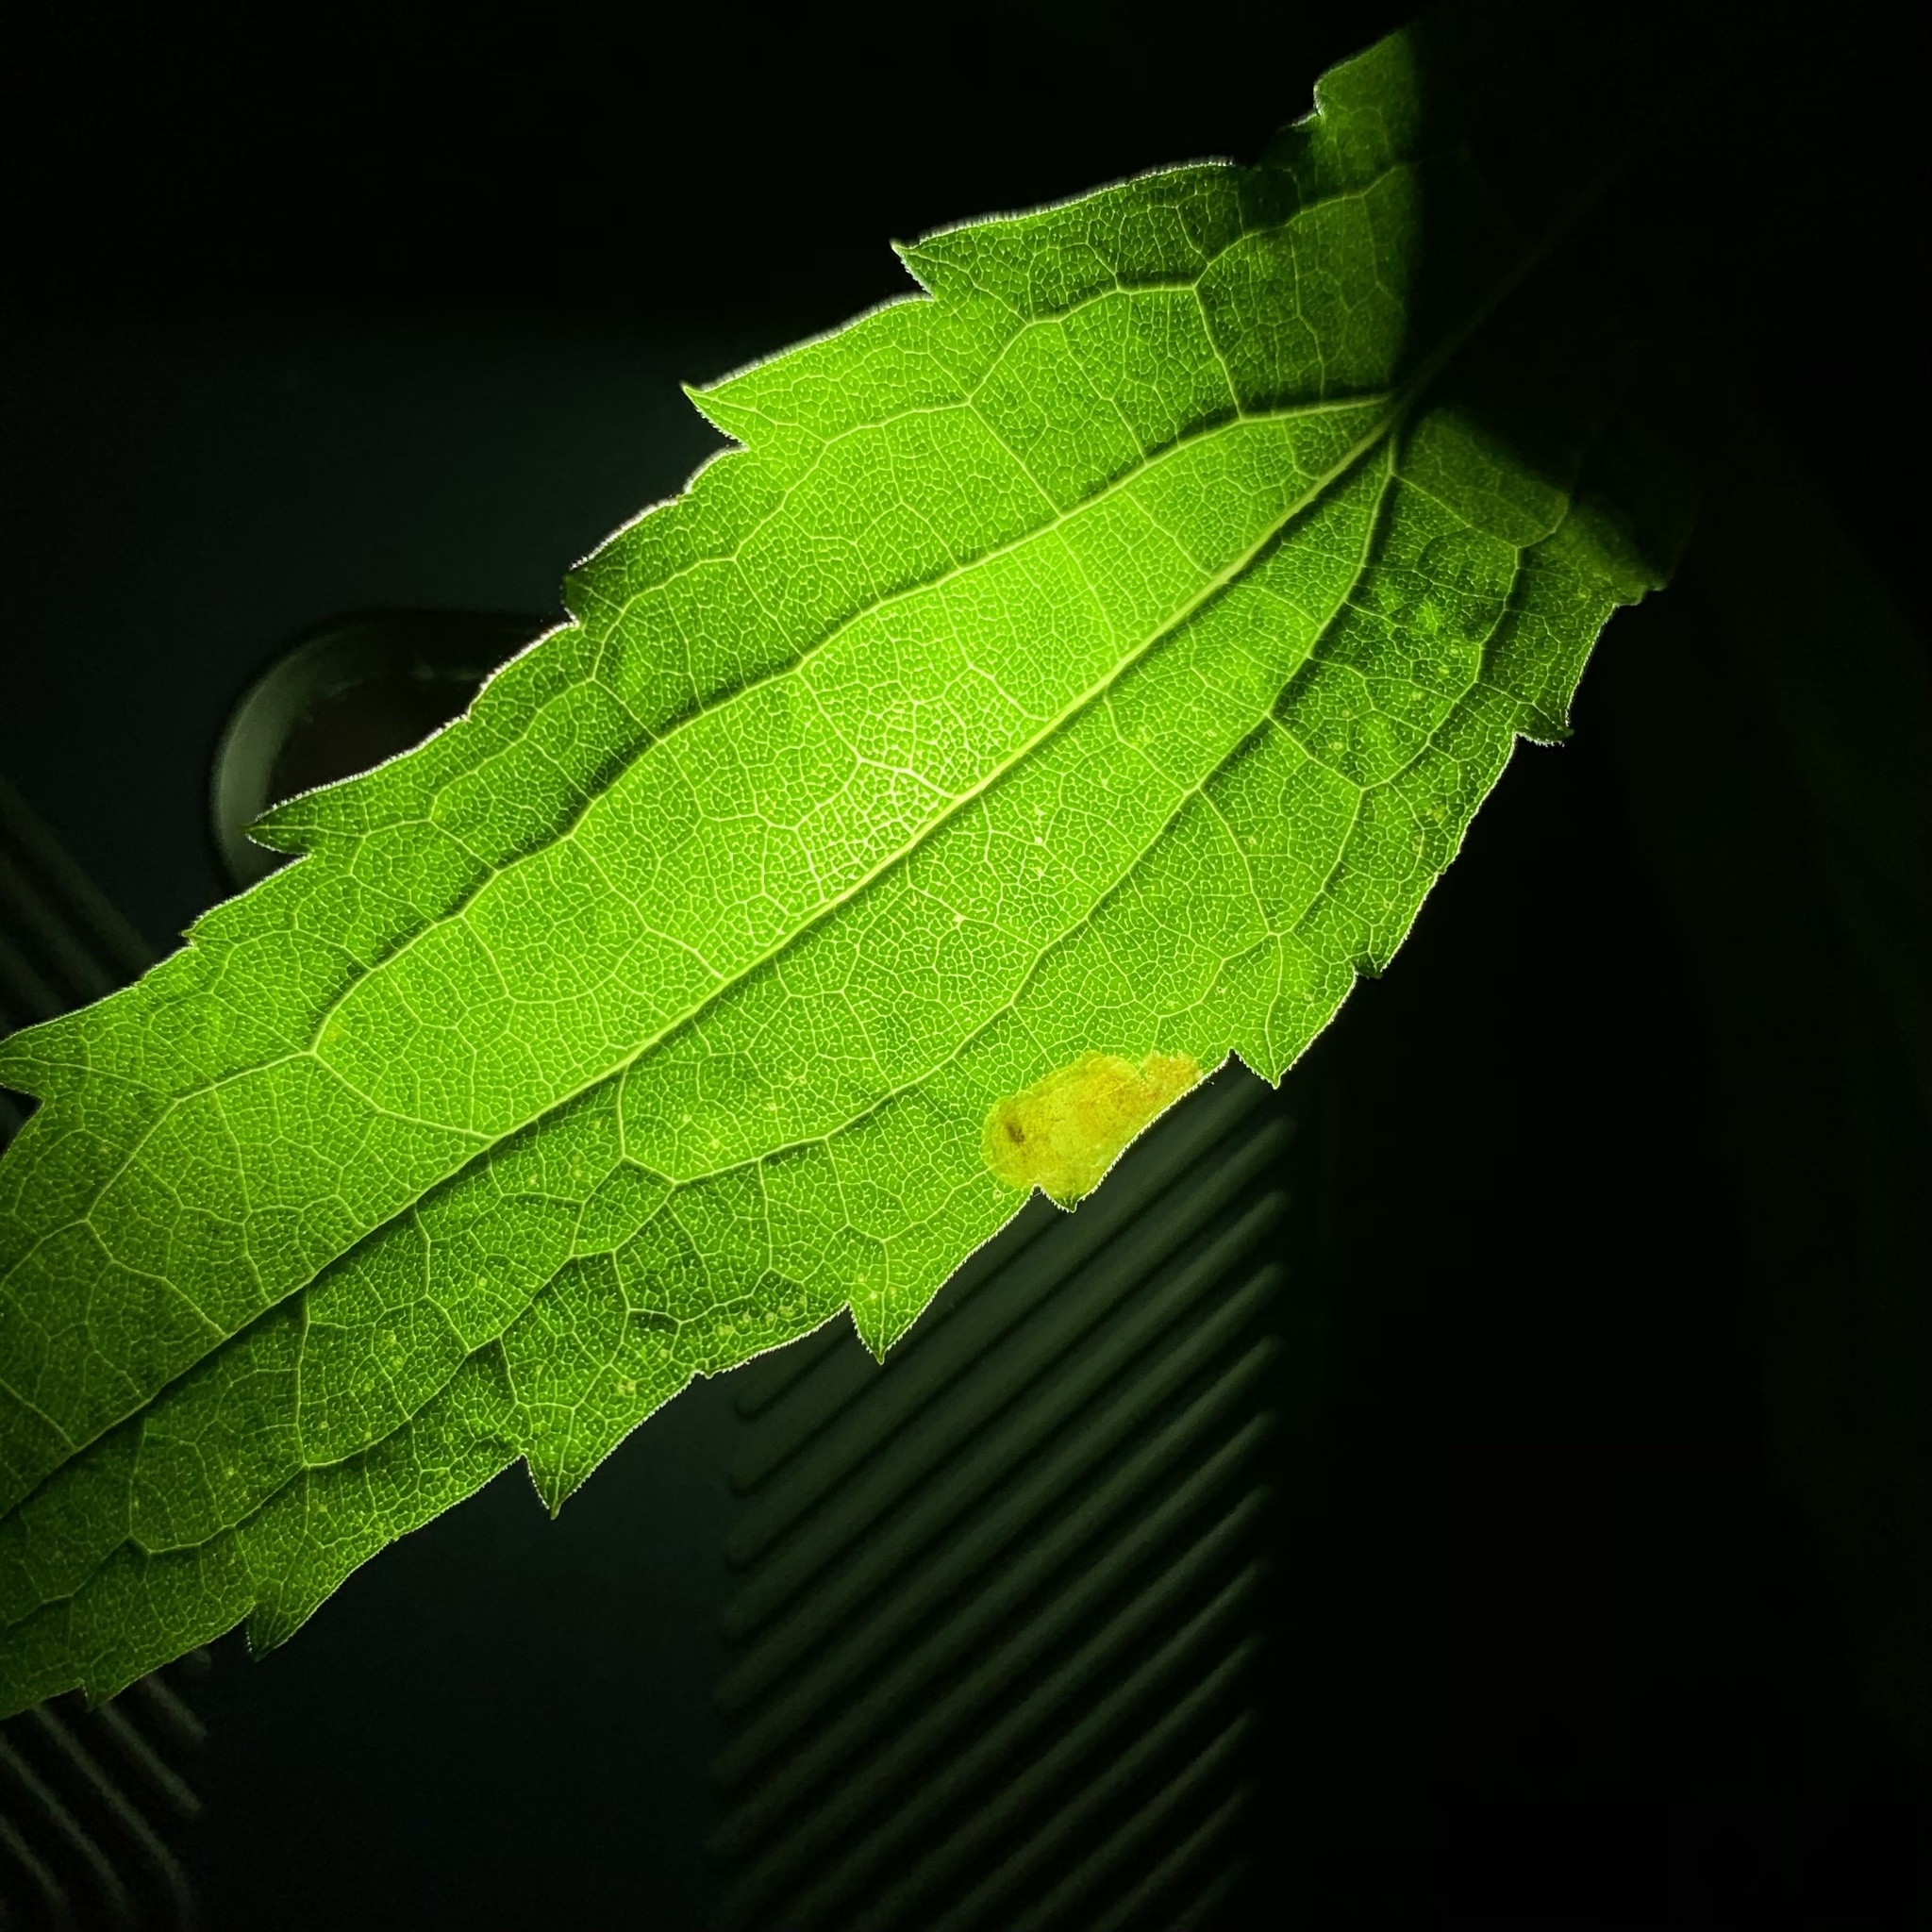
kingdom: Animalia
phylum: Arthropoda
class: Insecta
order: Diptera
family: Agromyzidae
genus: Nemorimyza
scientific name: Nemorimyza posticata
